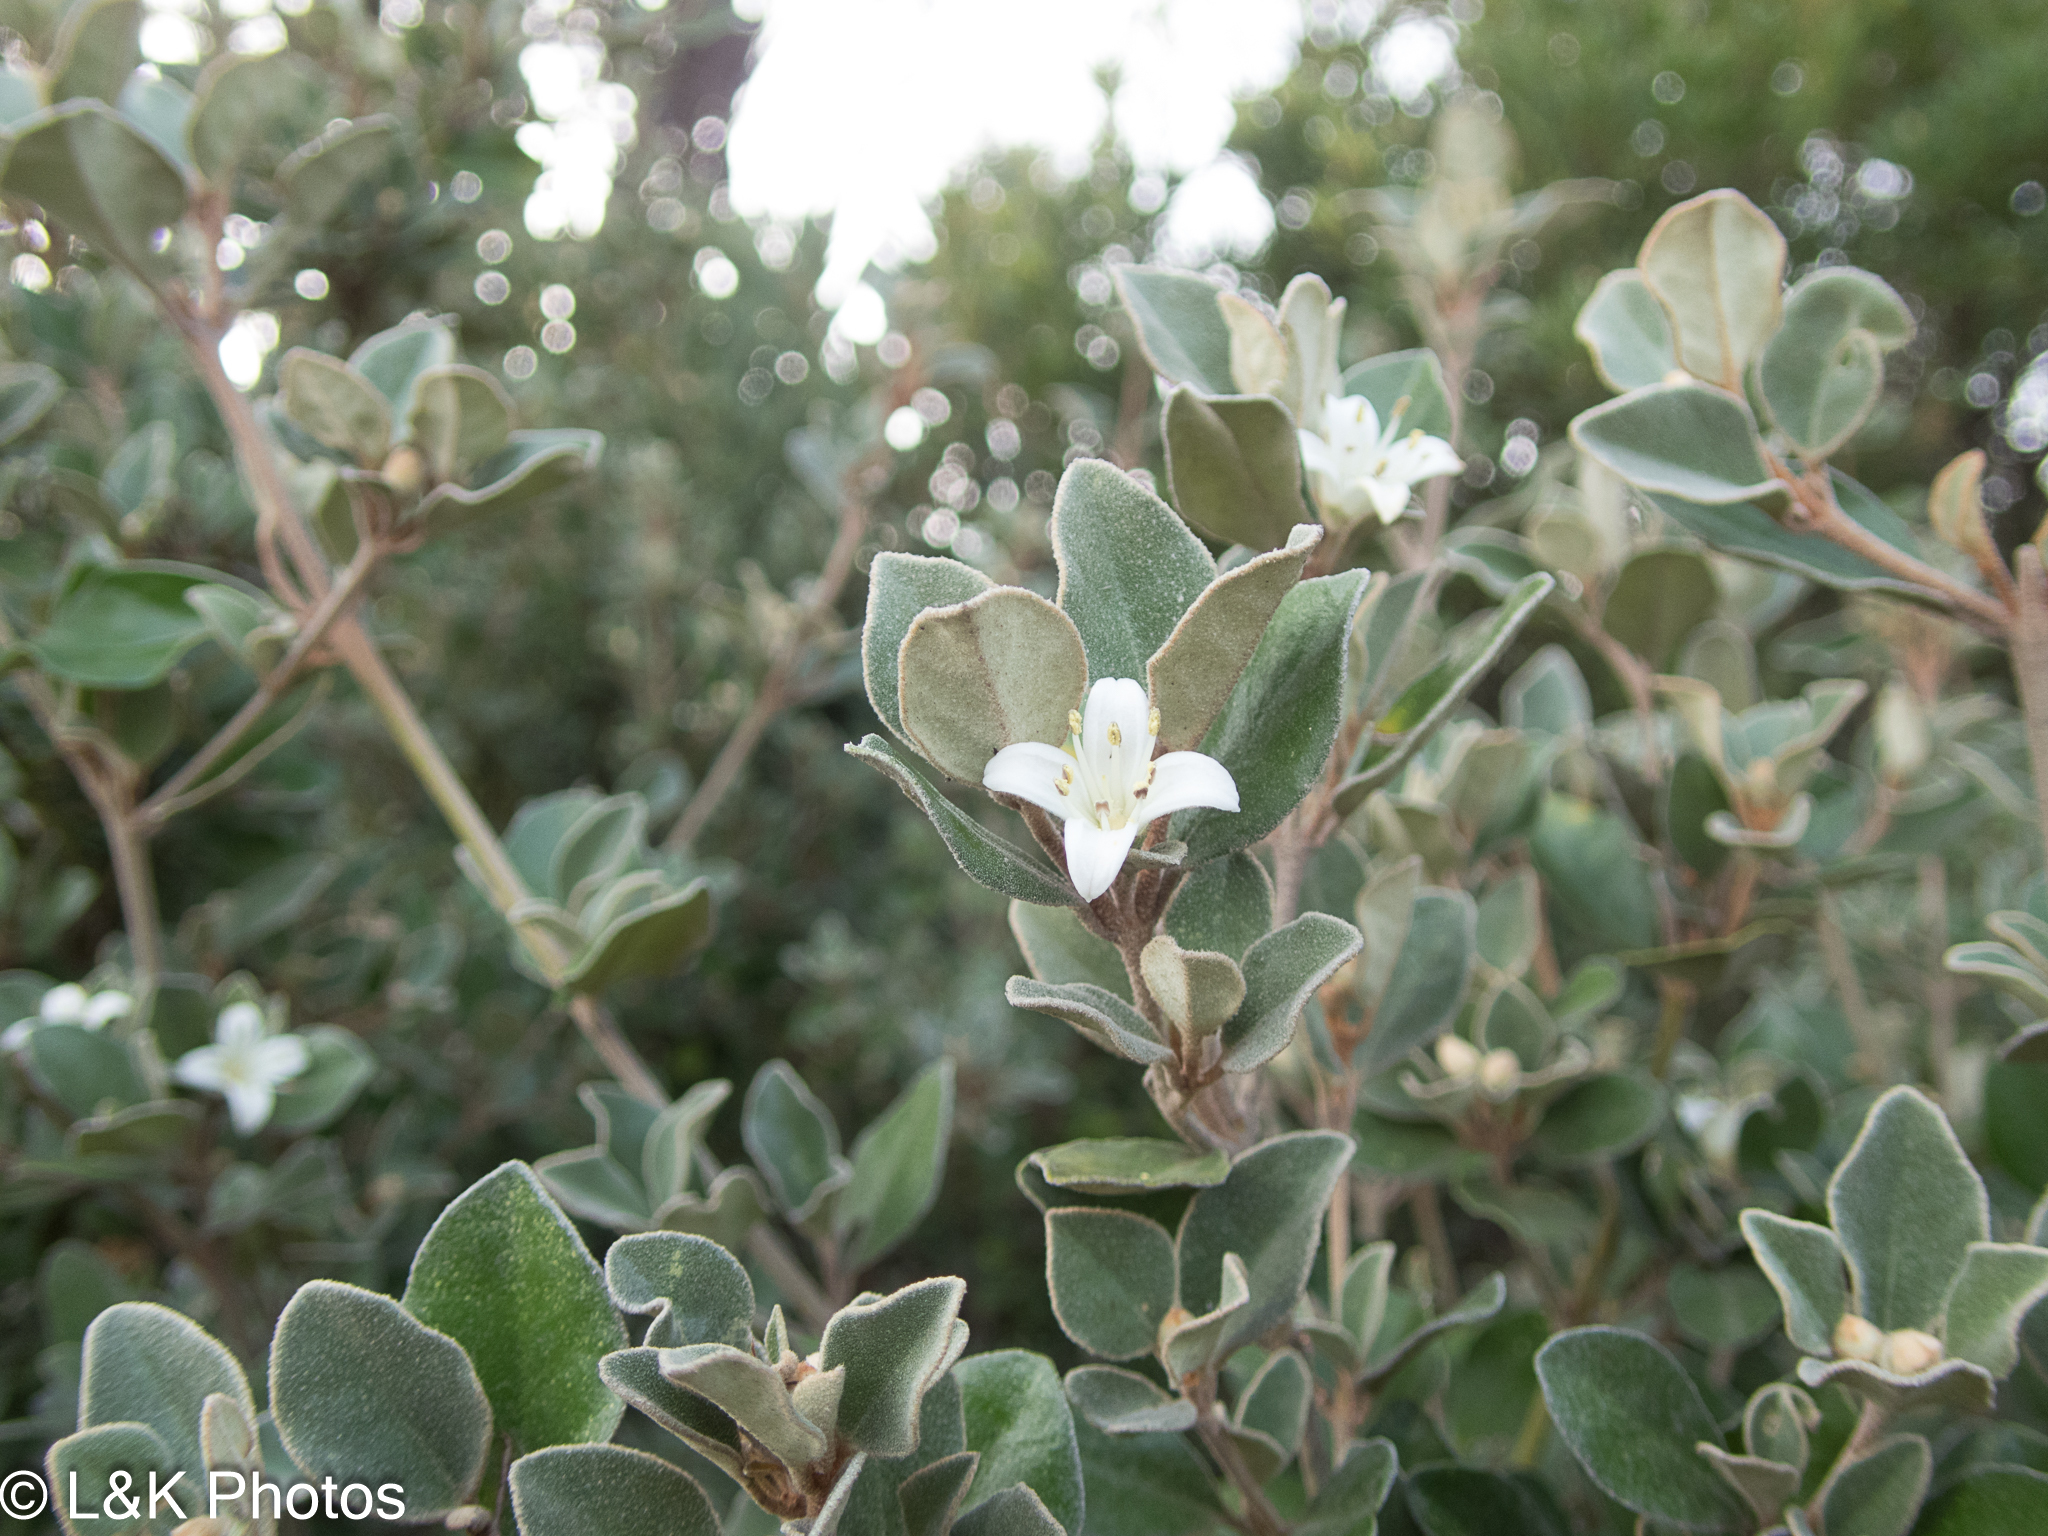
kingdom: Plantae
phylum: Tracheophyta
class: Magnoliopsida
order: Sapindales
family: Rutaceae
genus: Correa
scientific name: Correa alba
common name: White correa
